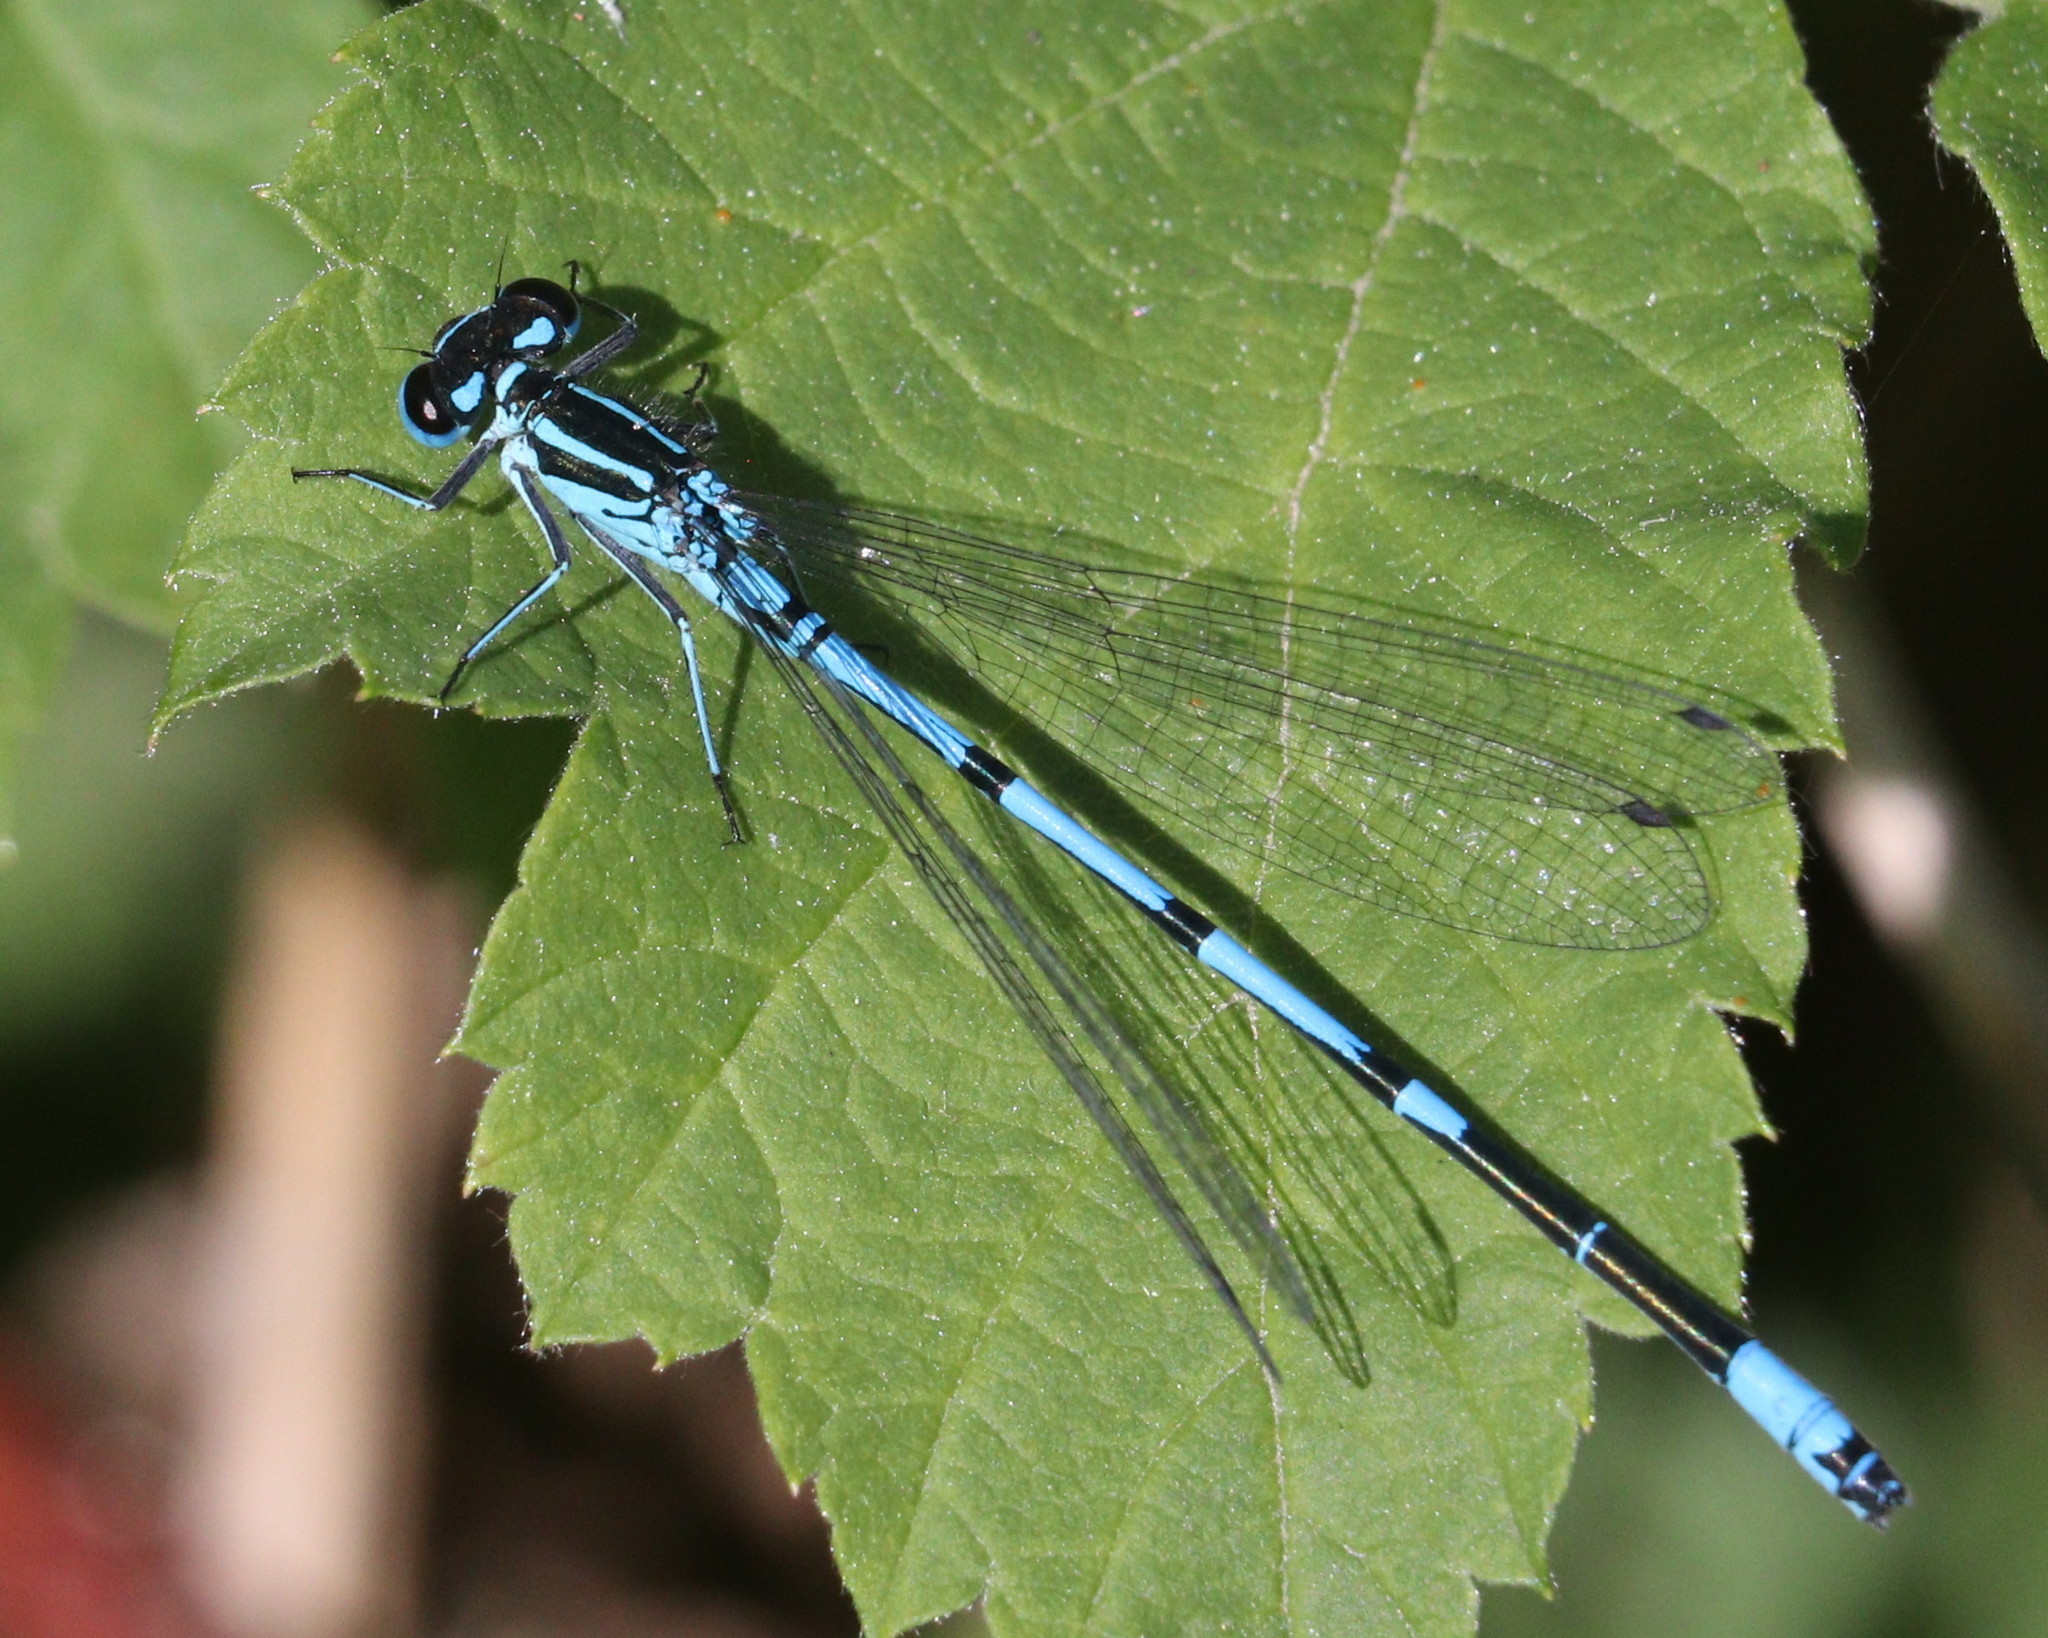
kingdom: Animalia
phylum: Arthropoda
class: Insecta
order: Odonata
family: Coenagrionidae
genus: Coenagrion
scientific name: Coenagrion puella
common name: Azure damselfly
